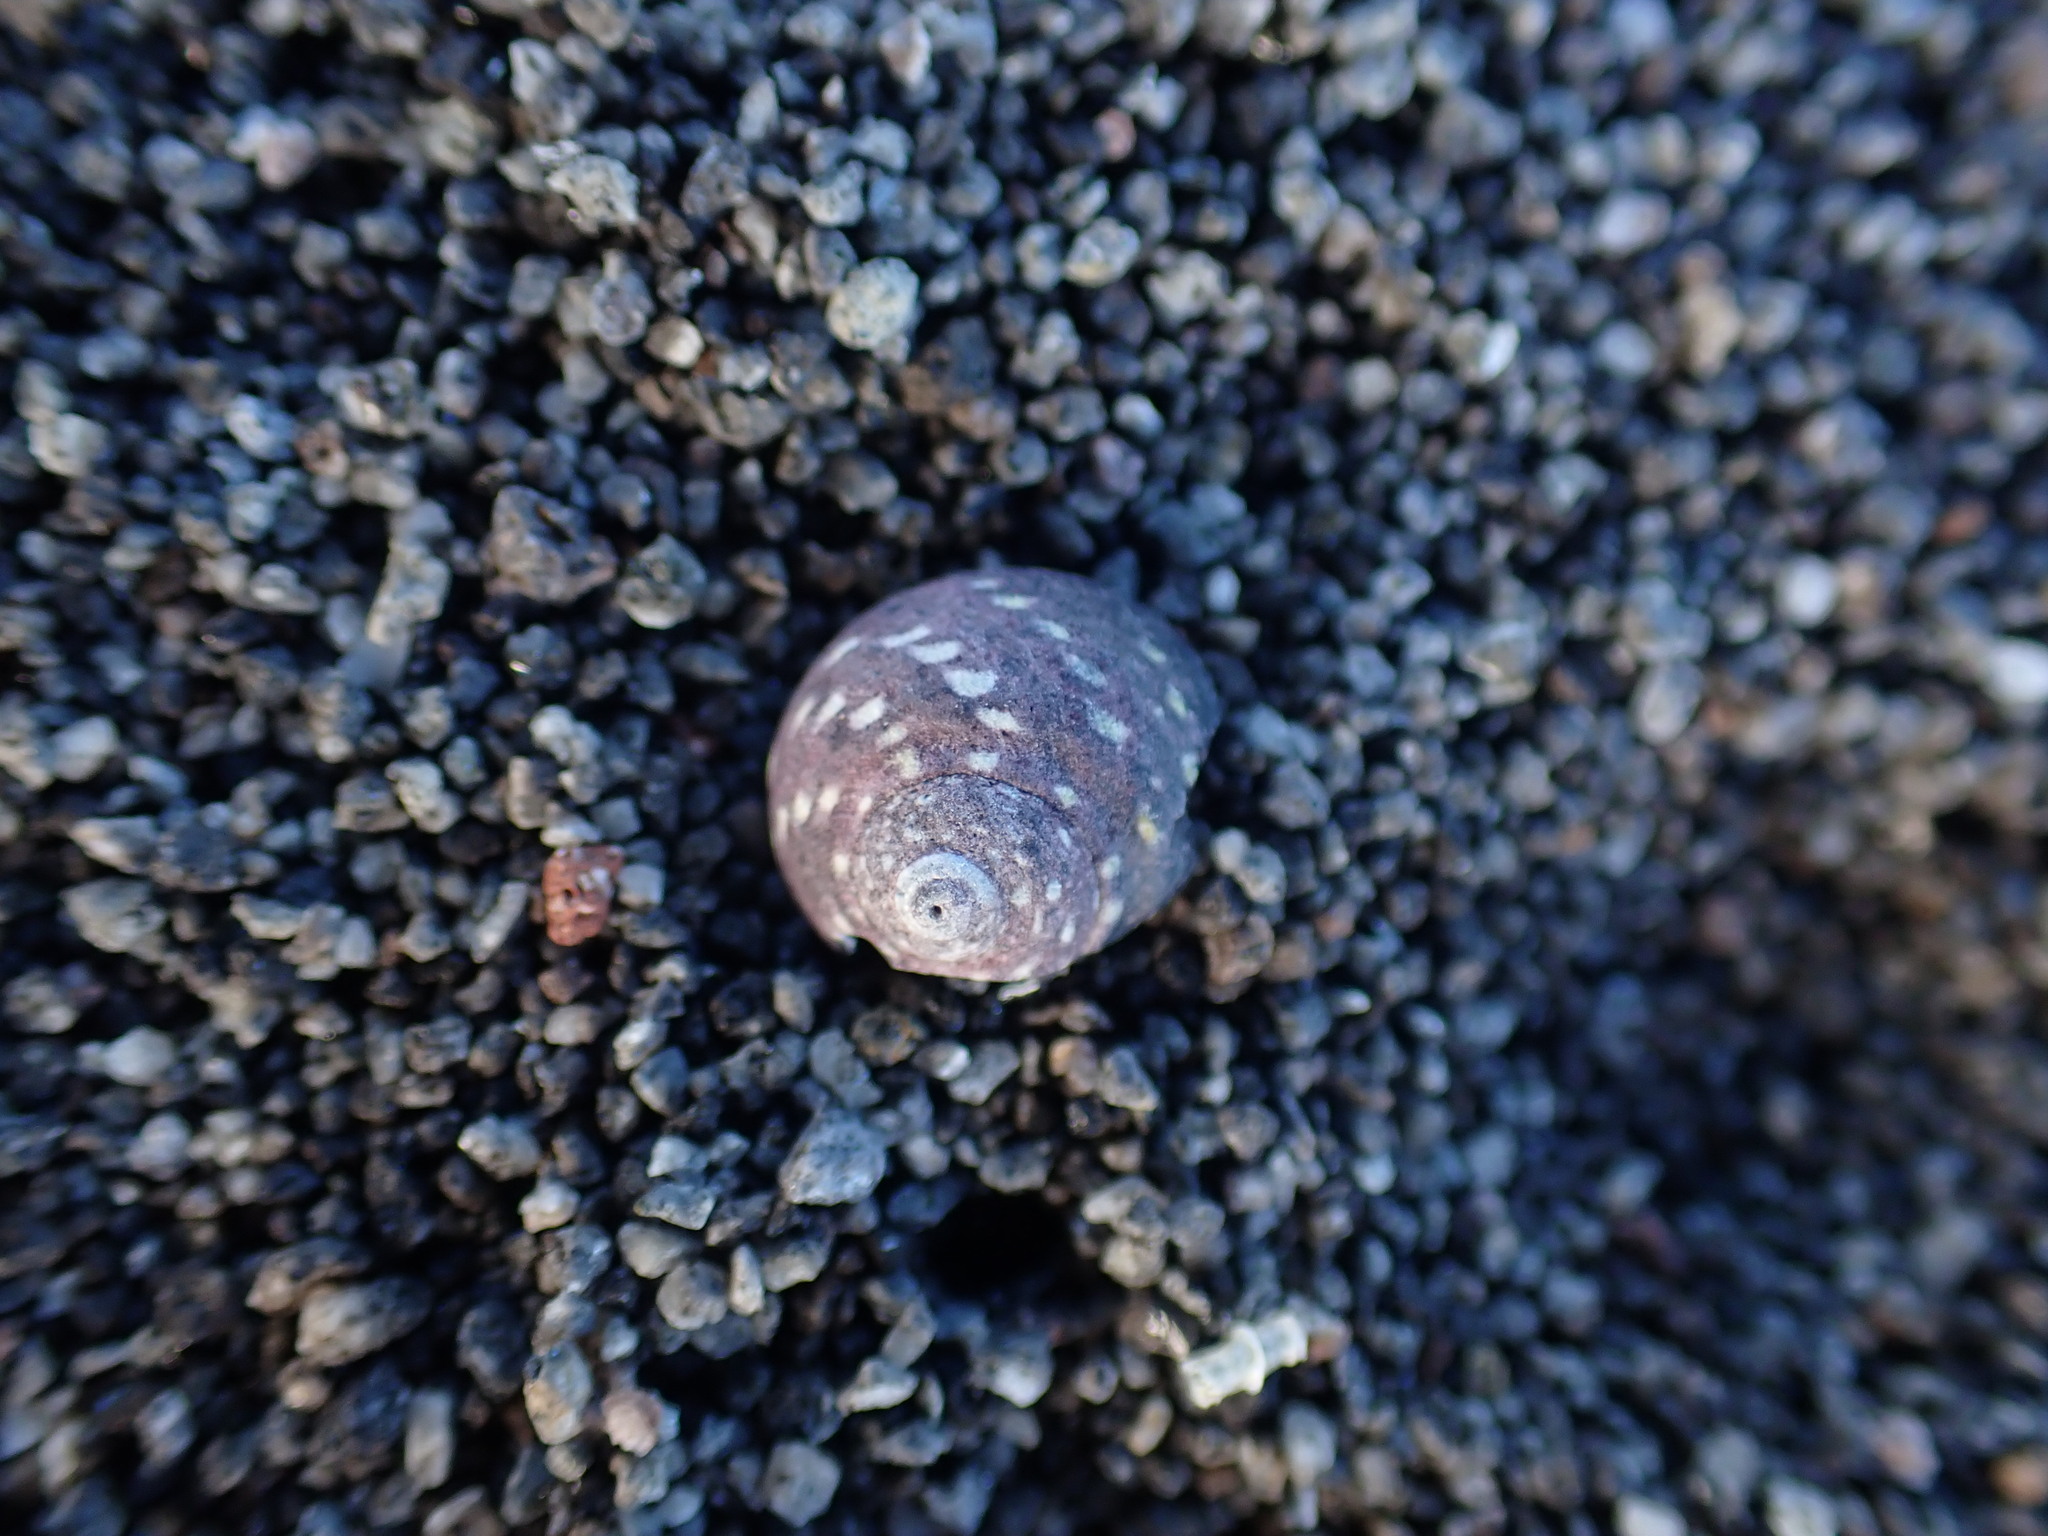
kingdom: Animalia
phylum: Mollusca
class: Gastropoda
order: Trochida
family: Trochidae
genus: Diloma
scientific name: Diloma aridum
